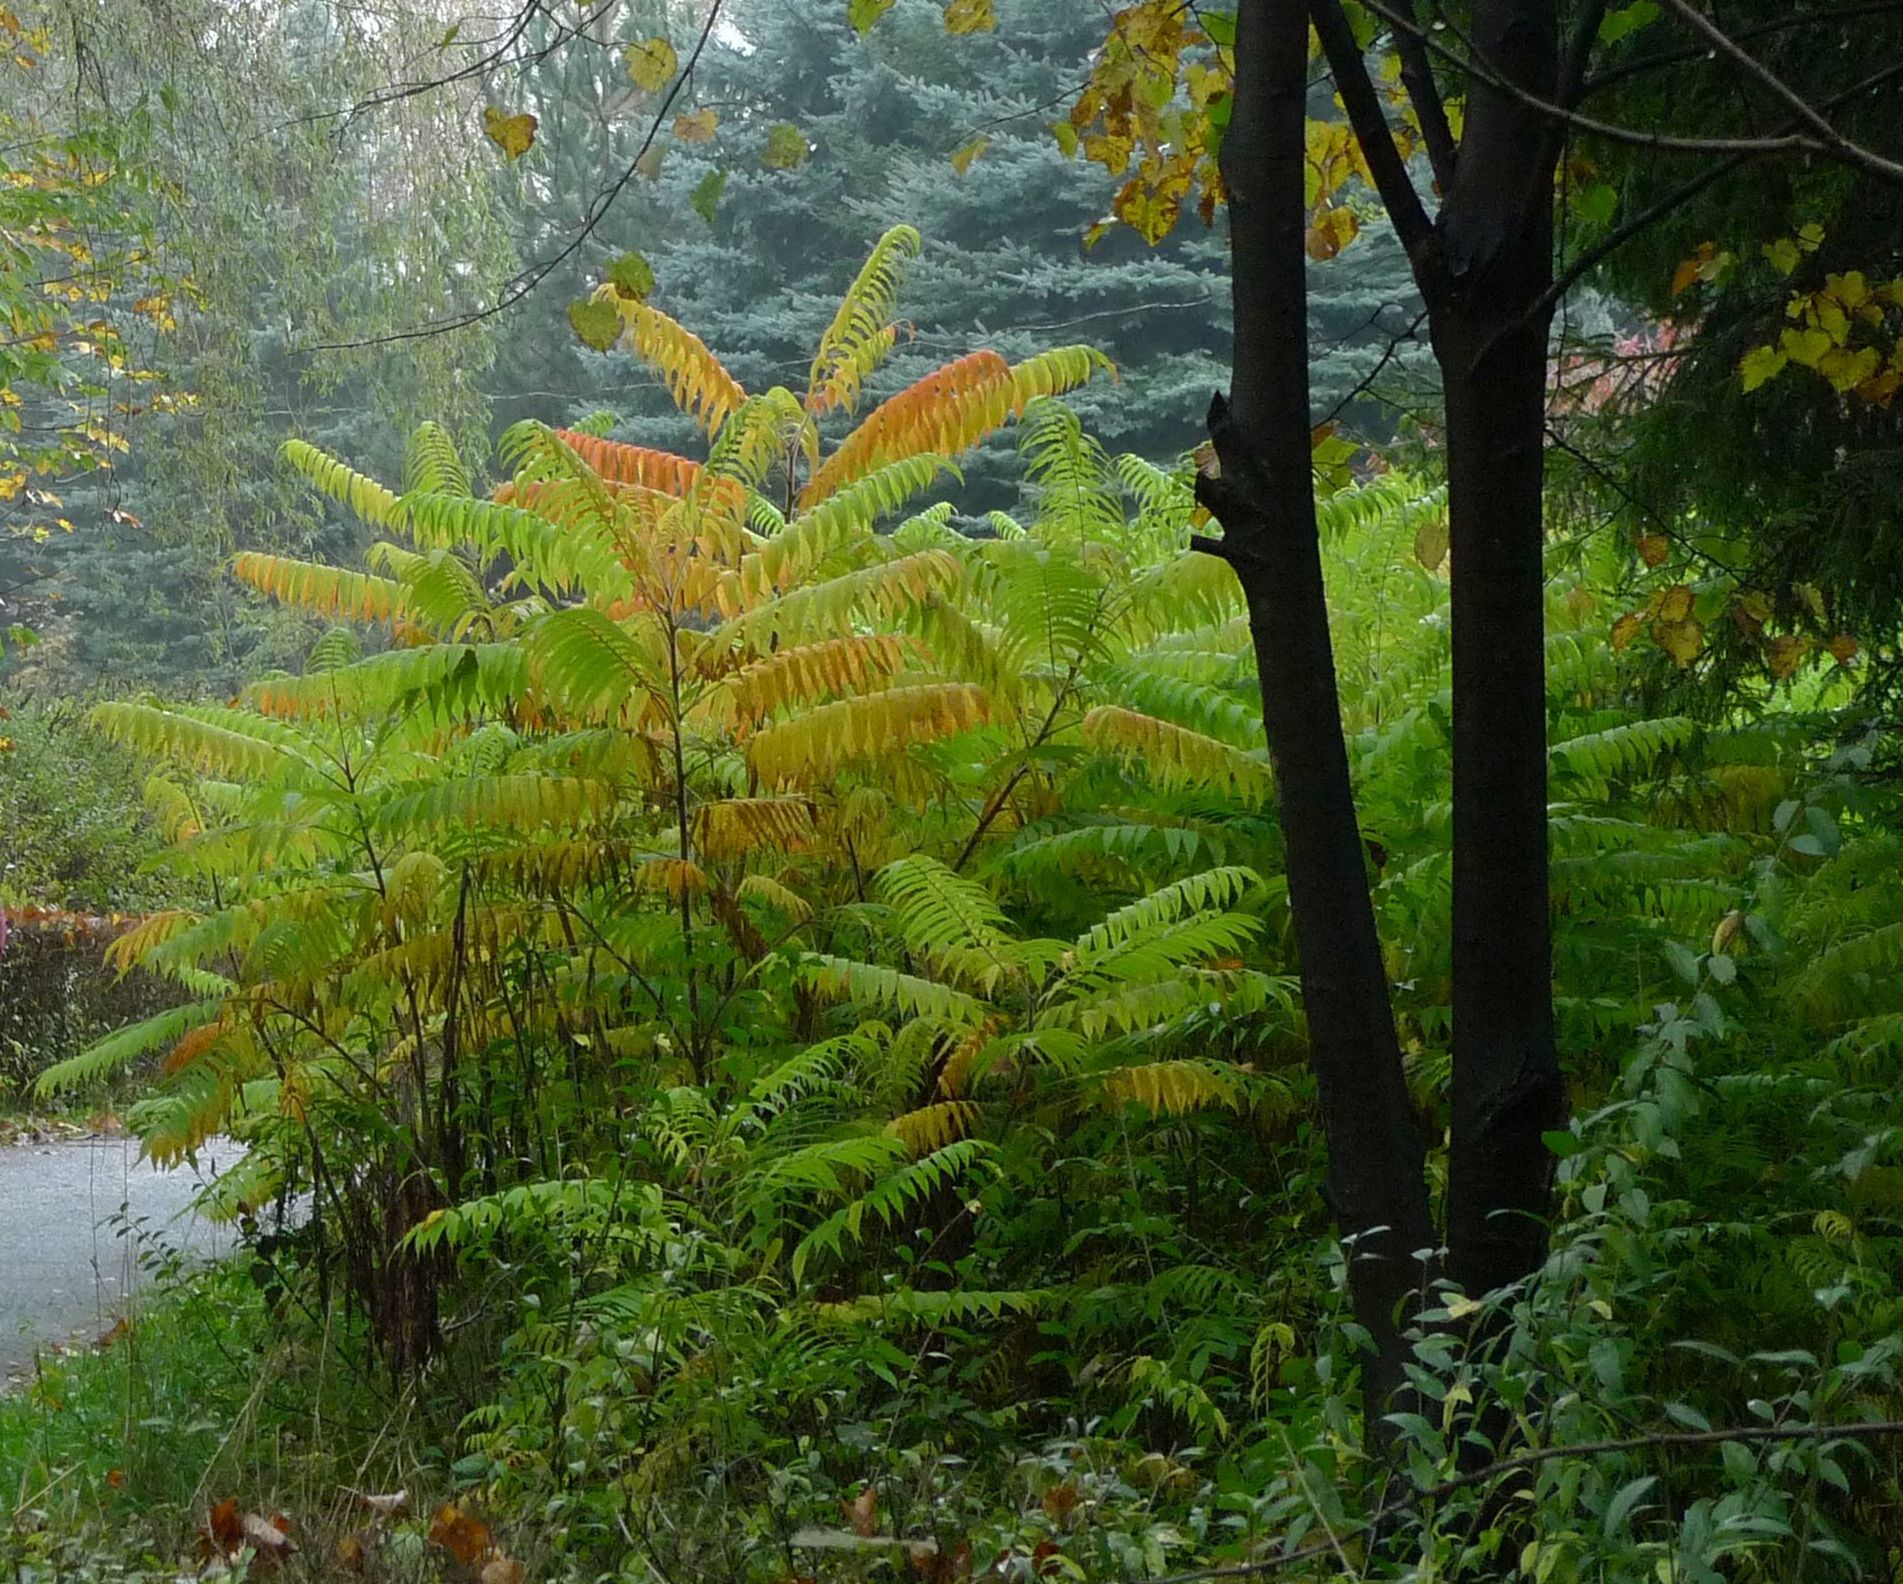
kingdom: Plantae
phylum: Tracheophyta
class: Magnoliopsida
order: Sapindales
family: Anacardiaceae
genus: Rhus
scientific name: Rhus typhina
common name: Staghorn sumac
